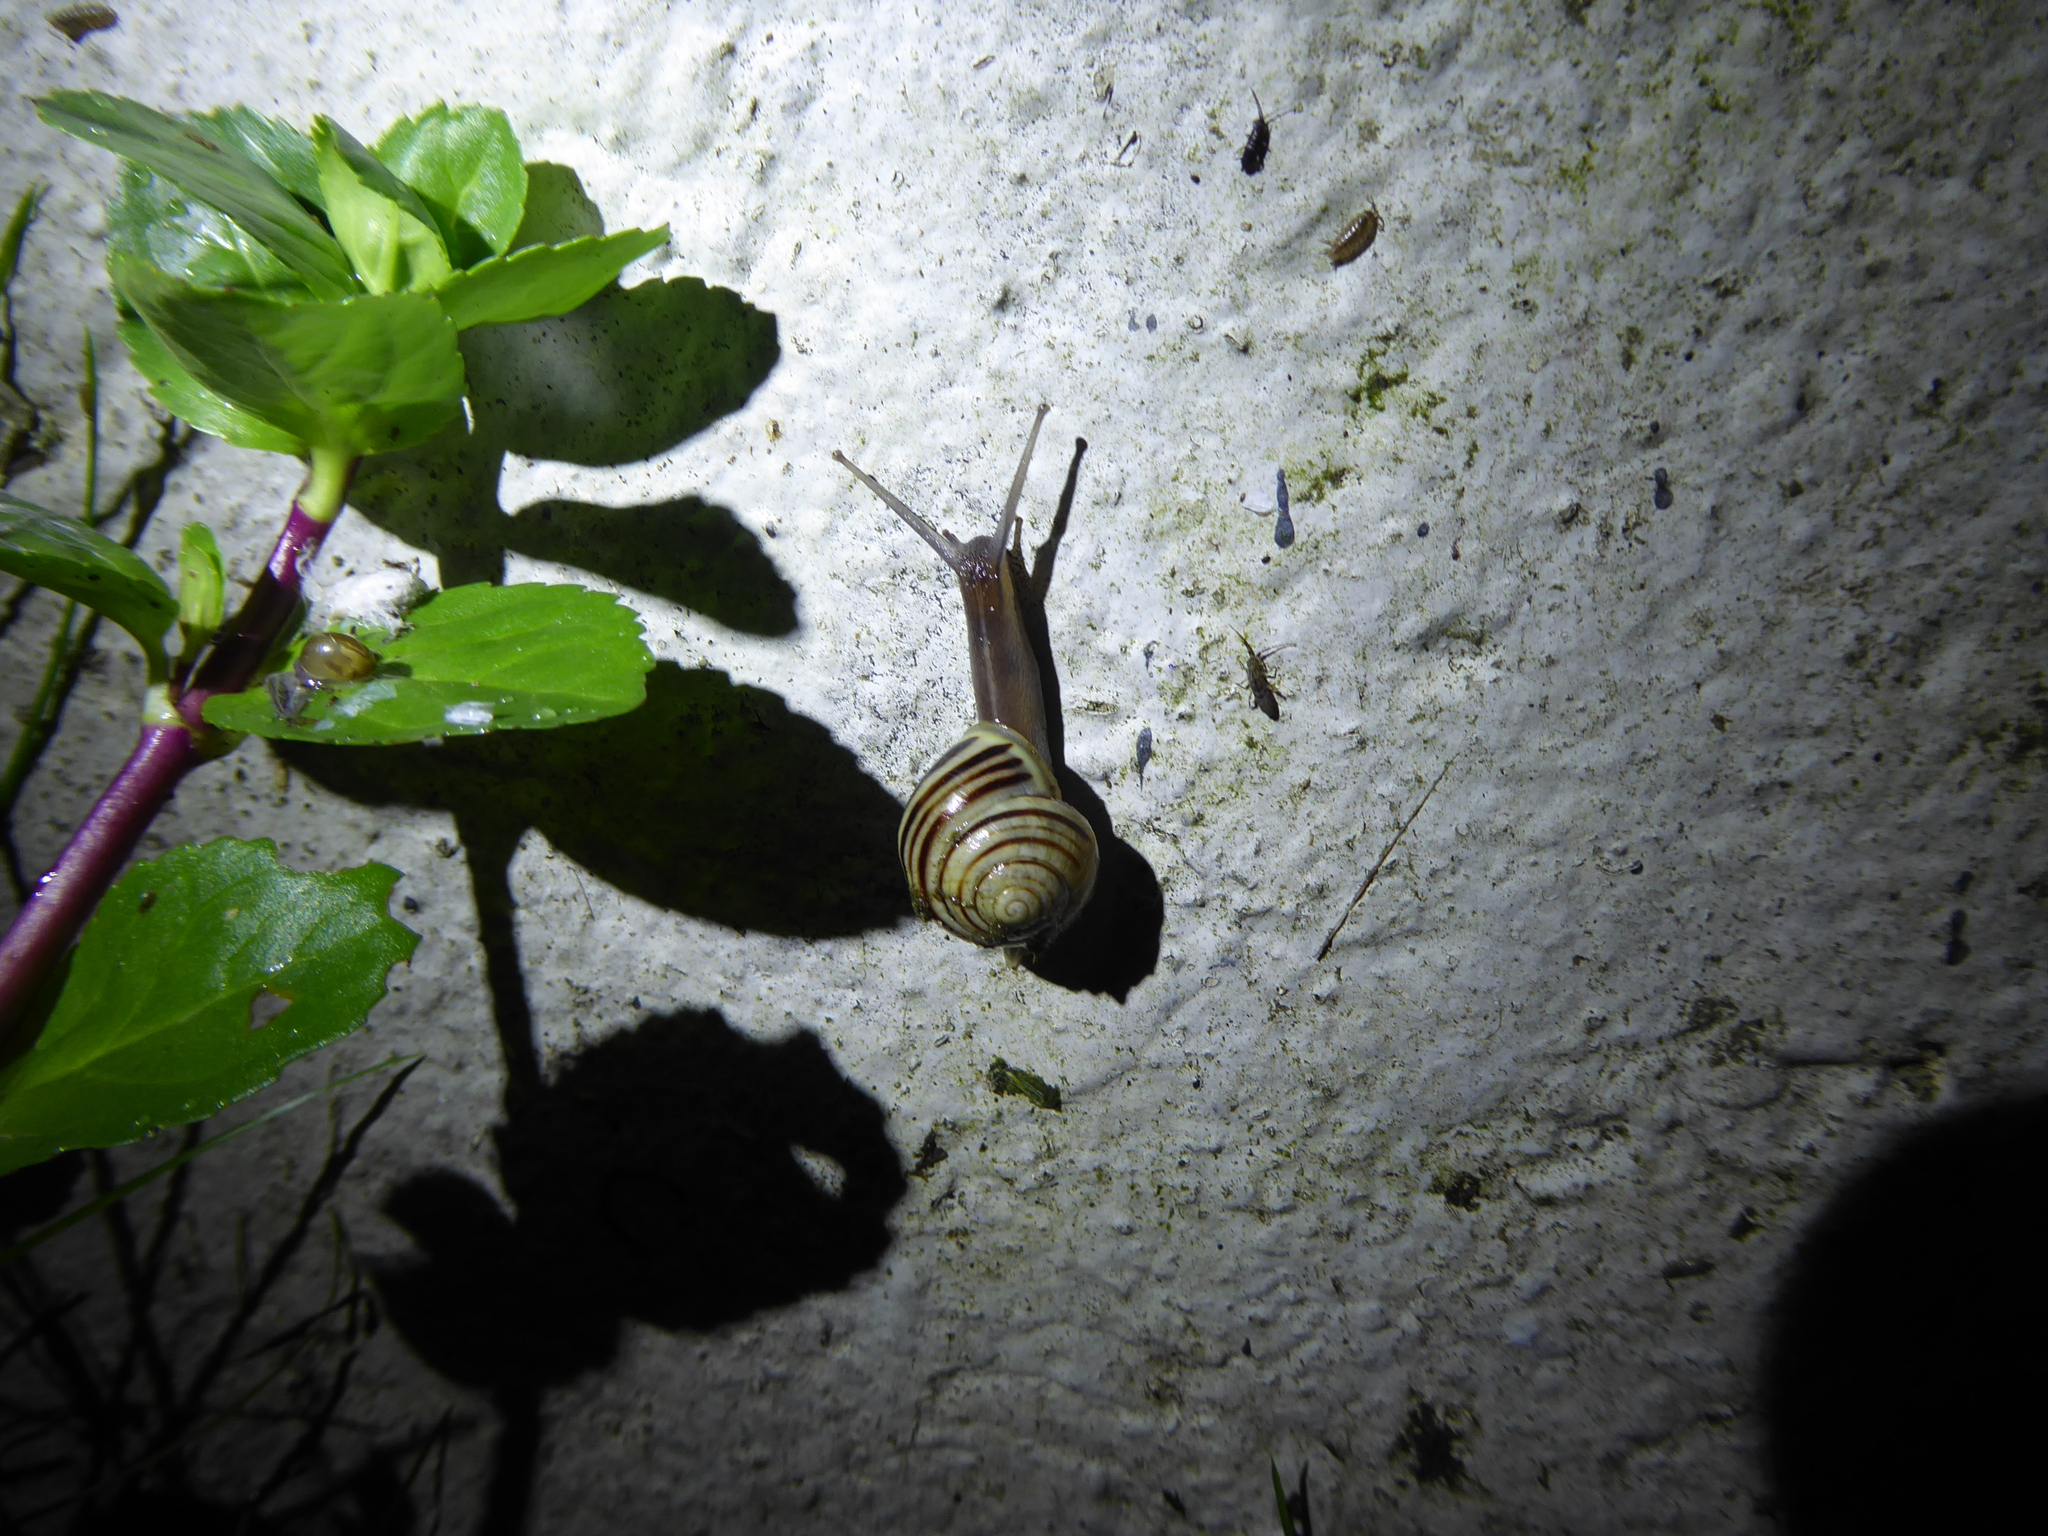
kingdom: Animalia
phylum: Mollusca
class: Gastropoda
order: Stylommatophora
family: Helicidae
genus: Cepaea
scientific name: Cepaea hortensis
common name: White-lip gardensnail
